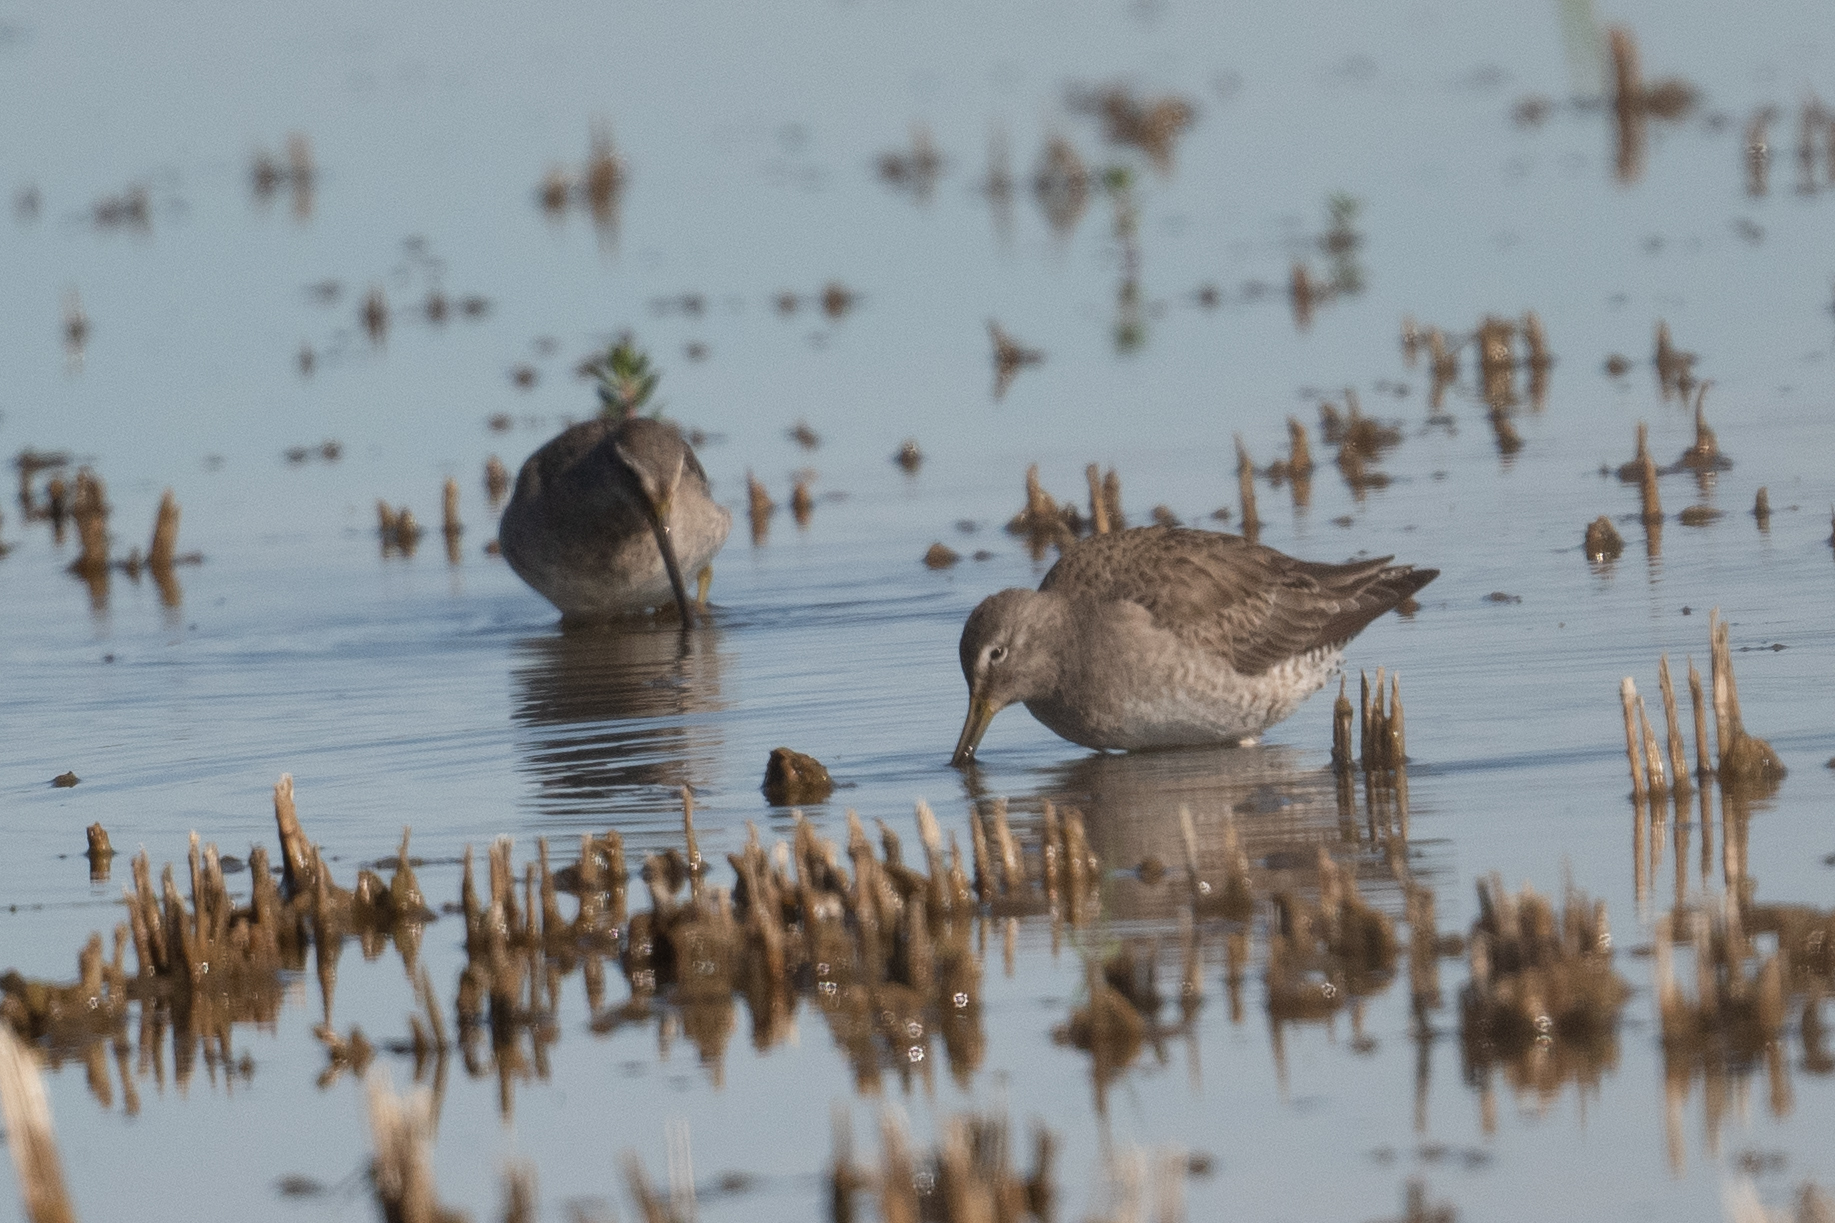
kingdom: Animalia
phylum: Chordata
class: Aves
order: Charadriiformes
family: Scolopacidae
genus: Limnodromus
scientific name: Limnodromus scolopaceus
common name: Long-billed dowitcher
